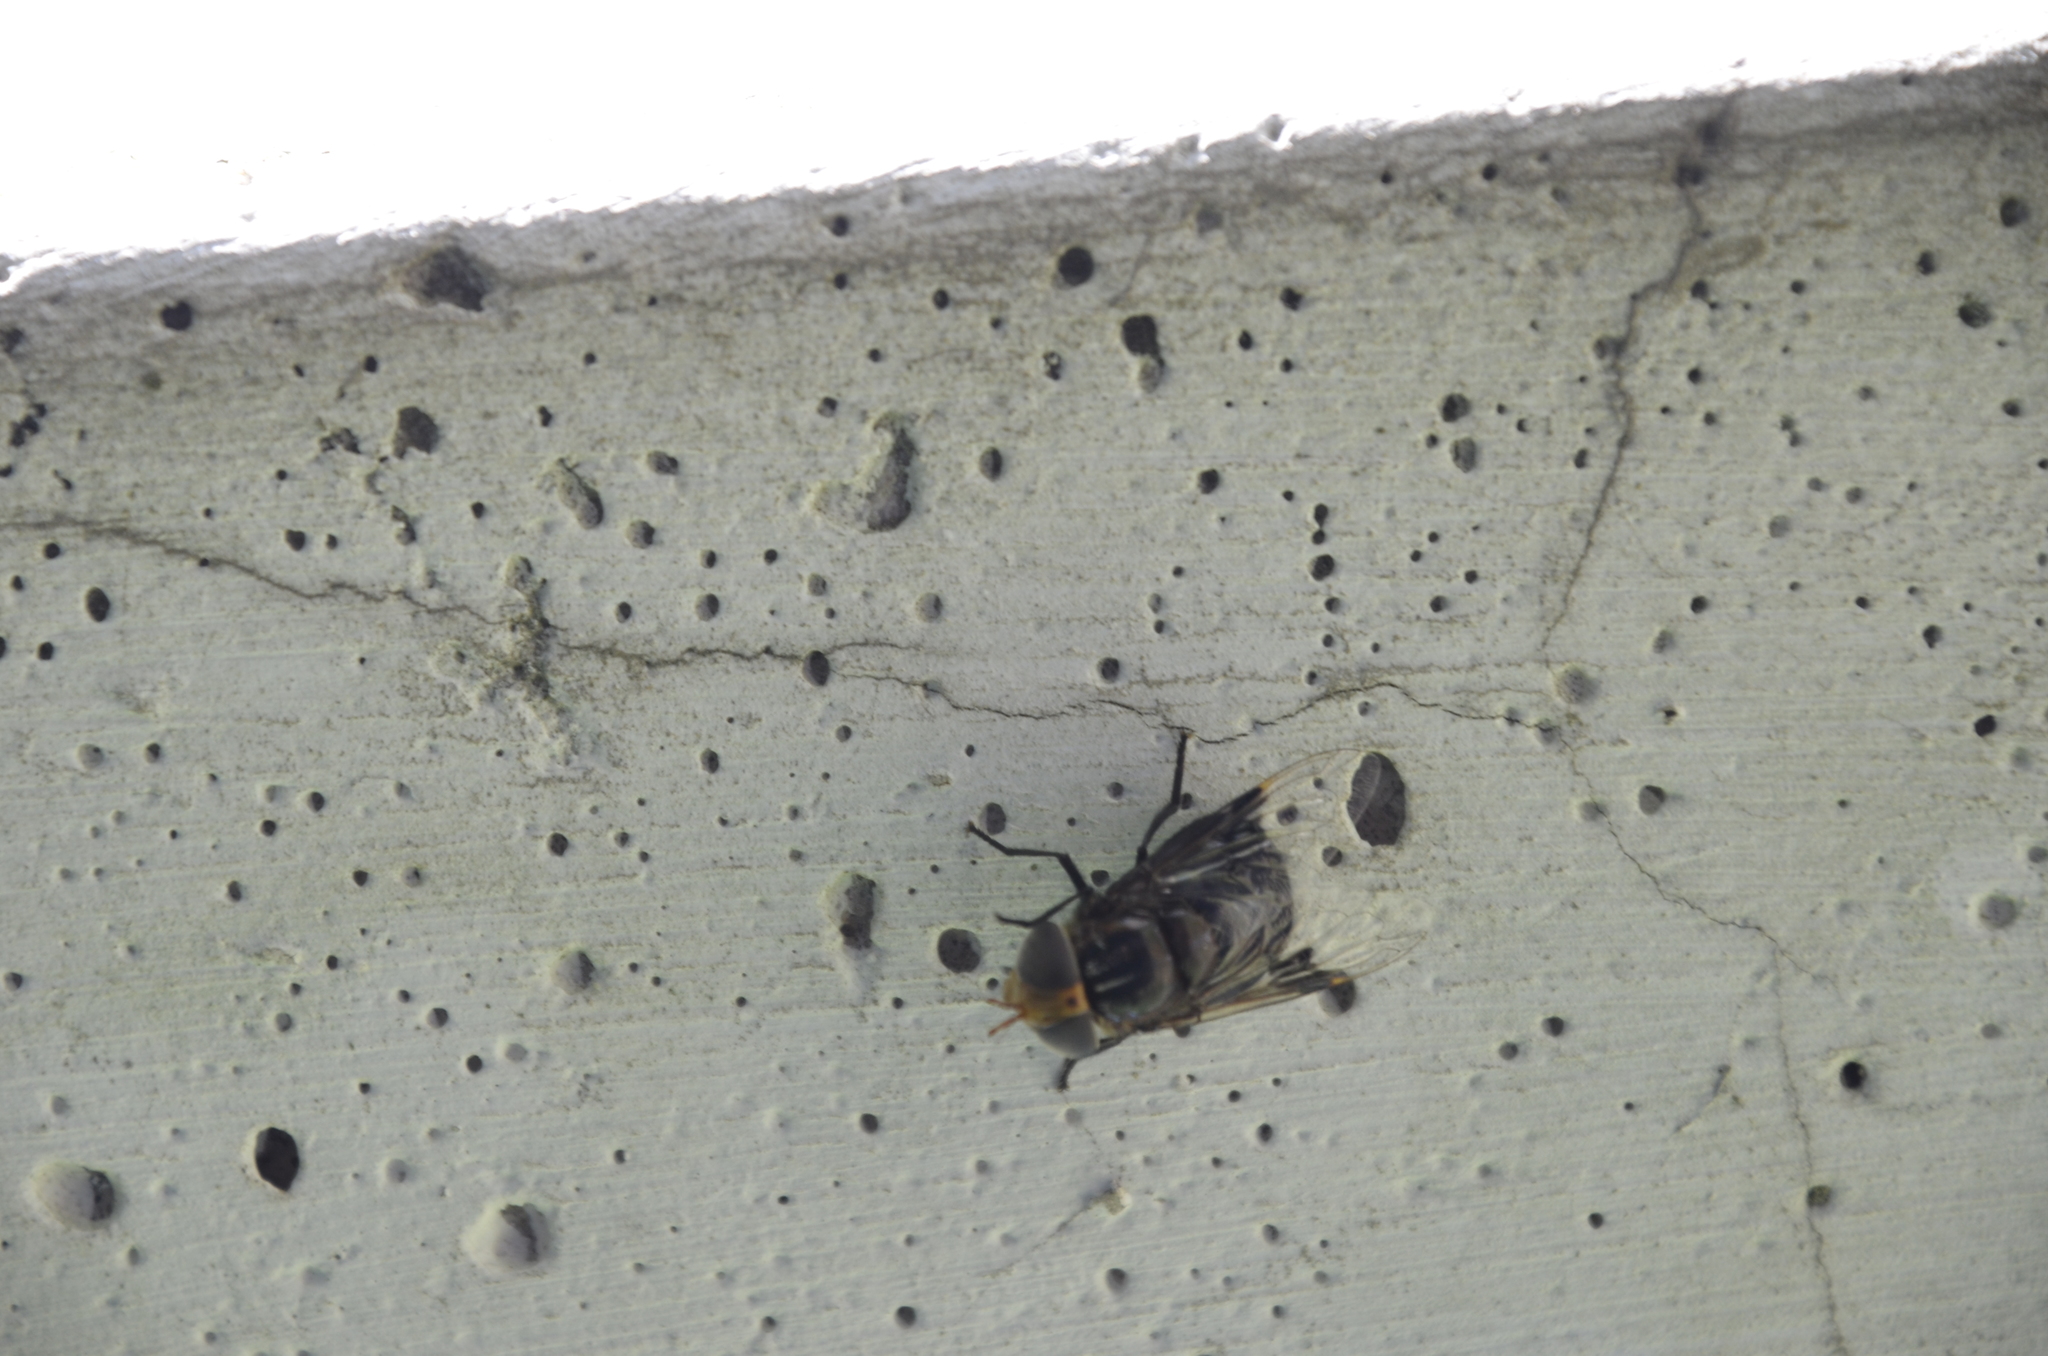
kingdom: Animalia
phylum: Arthropoda
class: Insecta
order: Diptera
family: Syrphidae
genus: Copestylum
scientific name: Copestylum spinigerum
